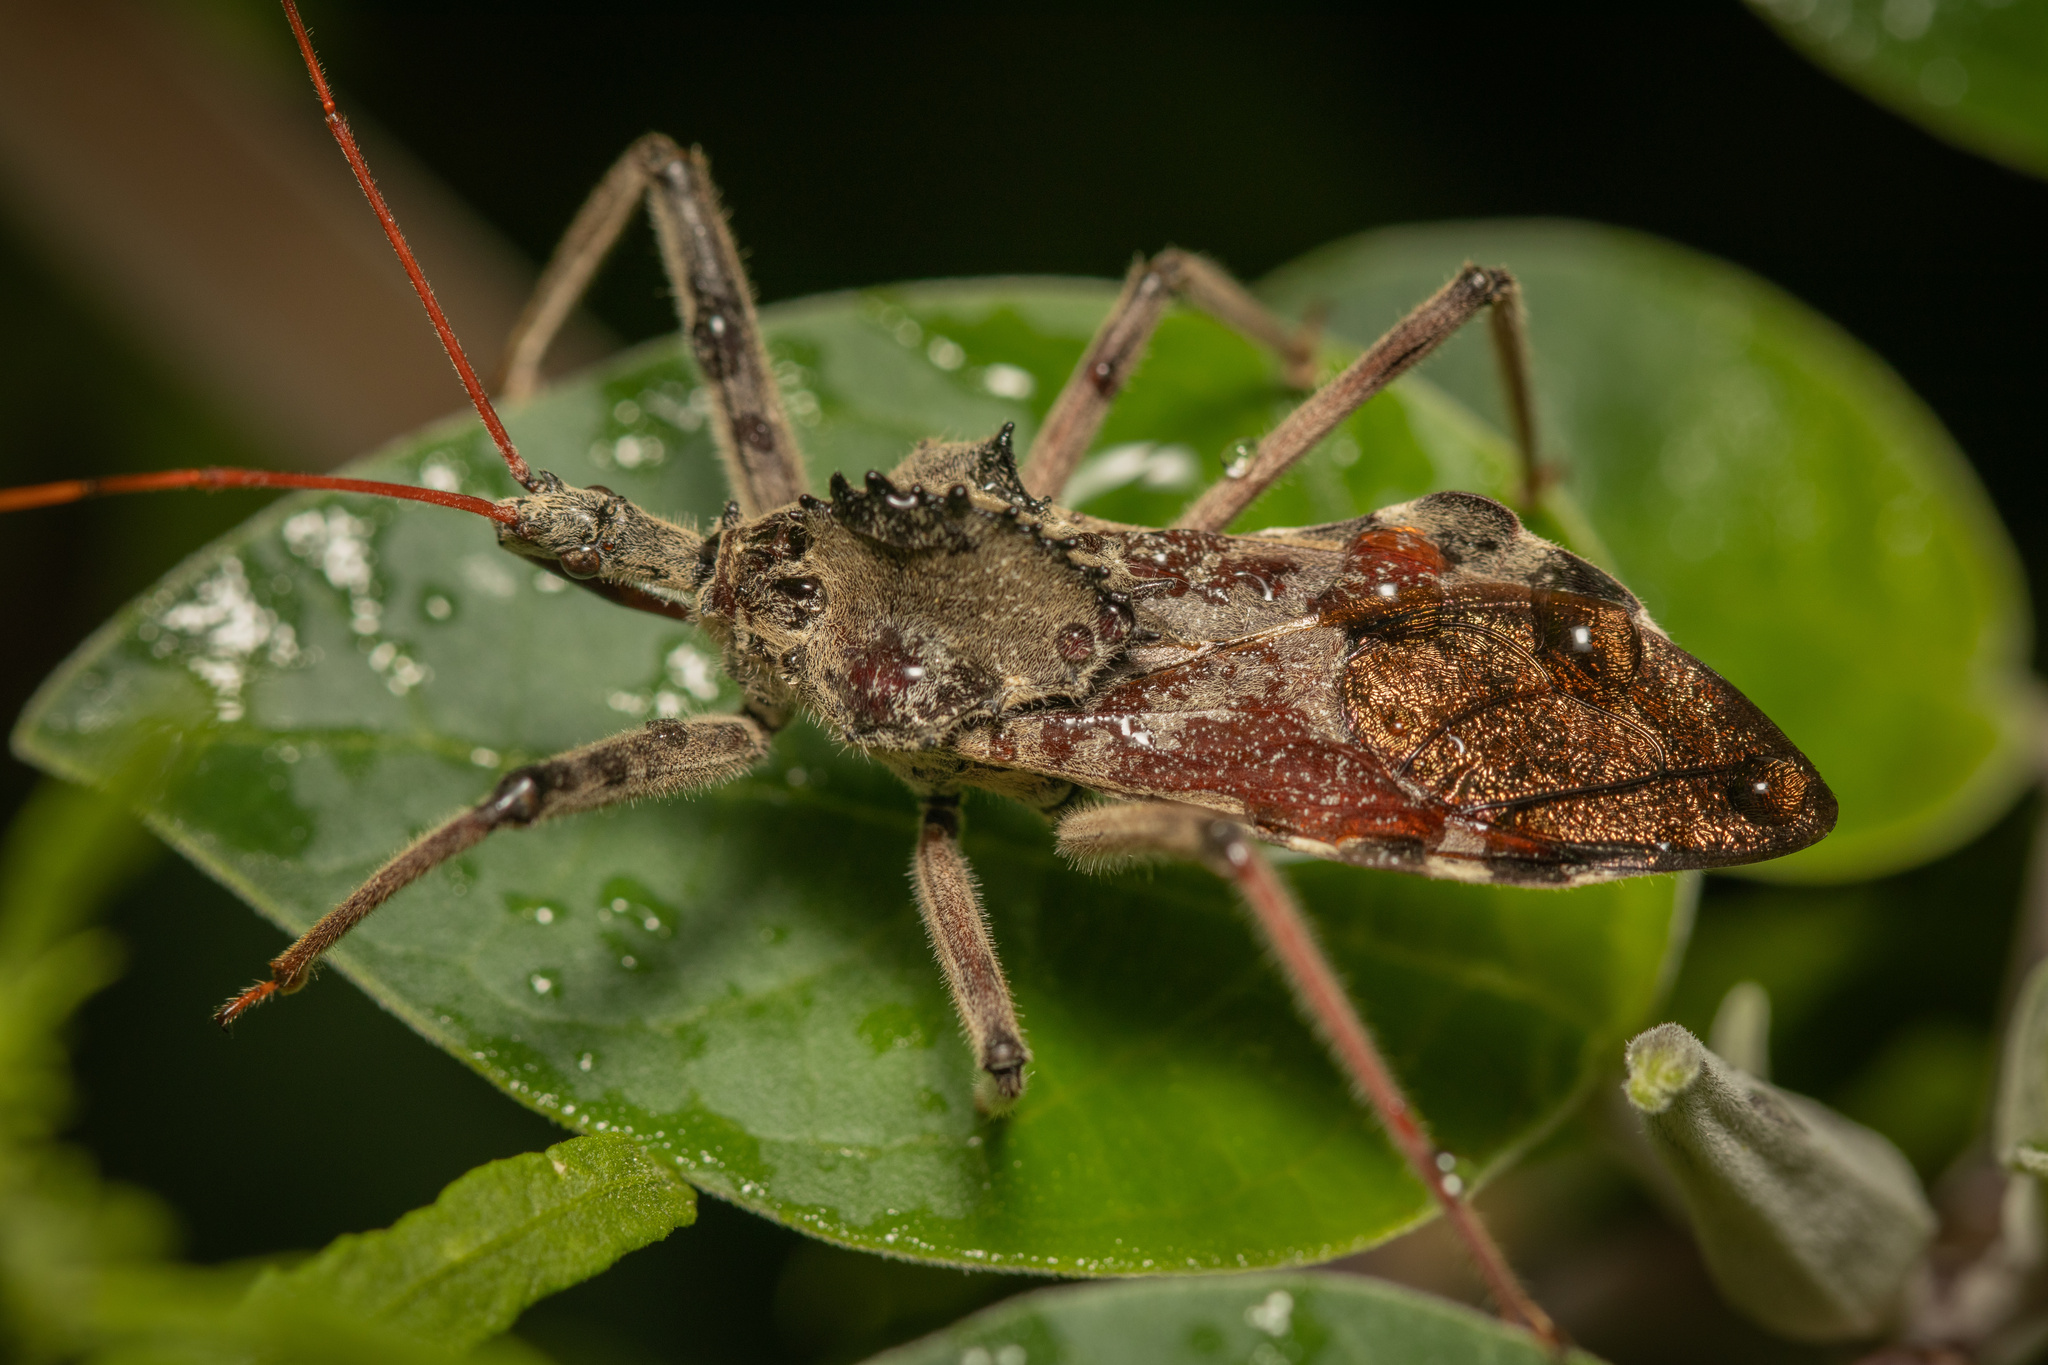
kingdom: Animalia
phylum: Arthropoda
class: Insecta
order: Hemiptera
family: Reduviidae
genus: Arilus
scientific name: Arilus cristatus
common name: North american wheel bug
